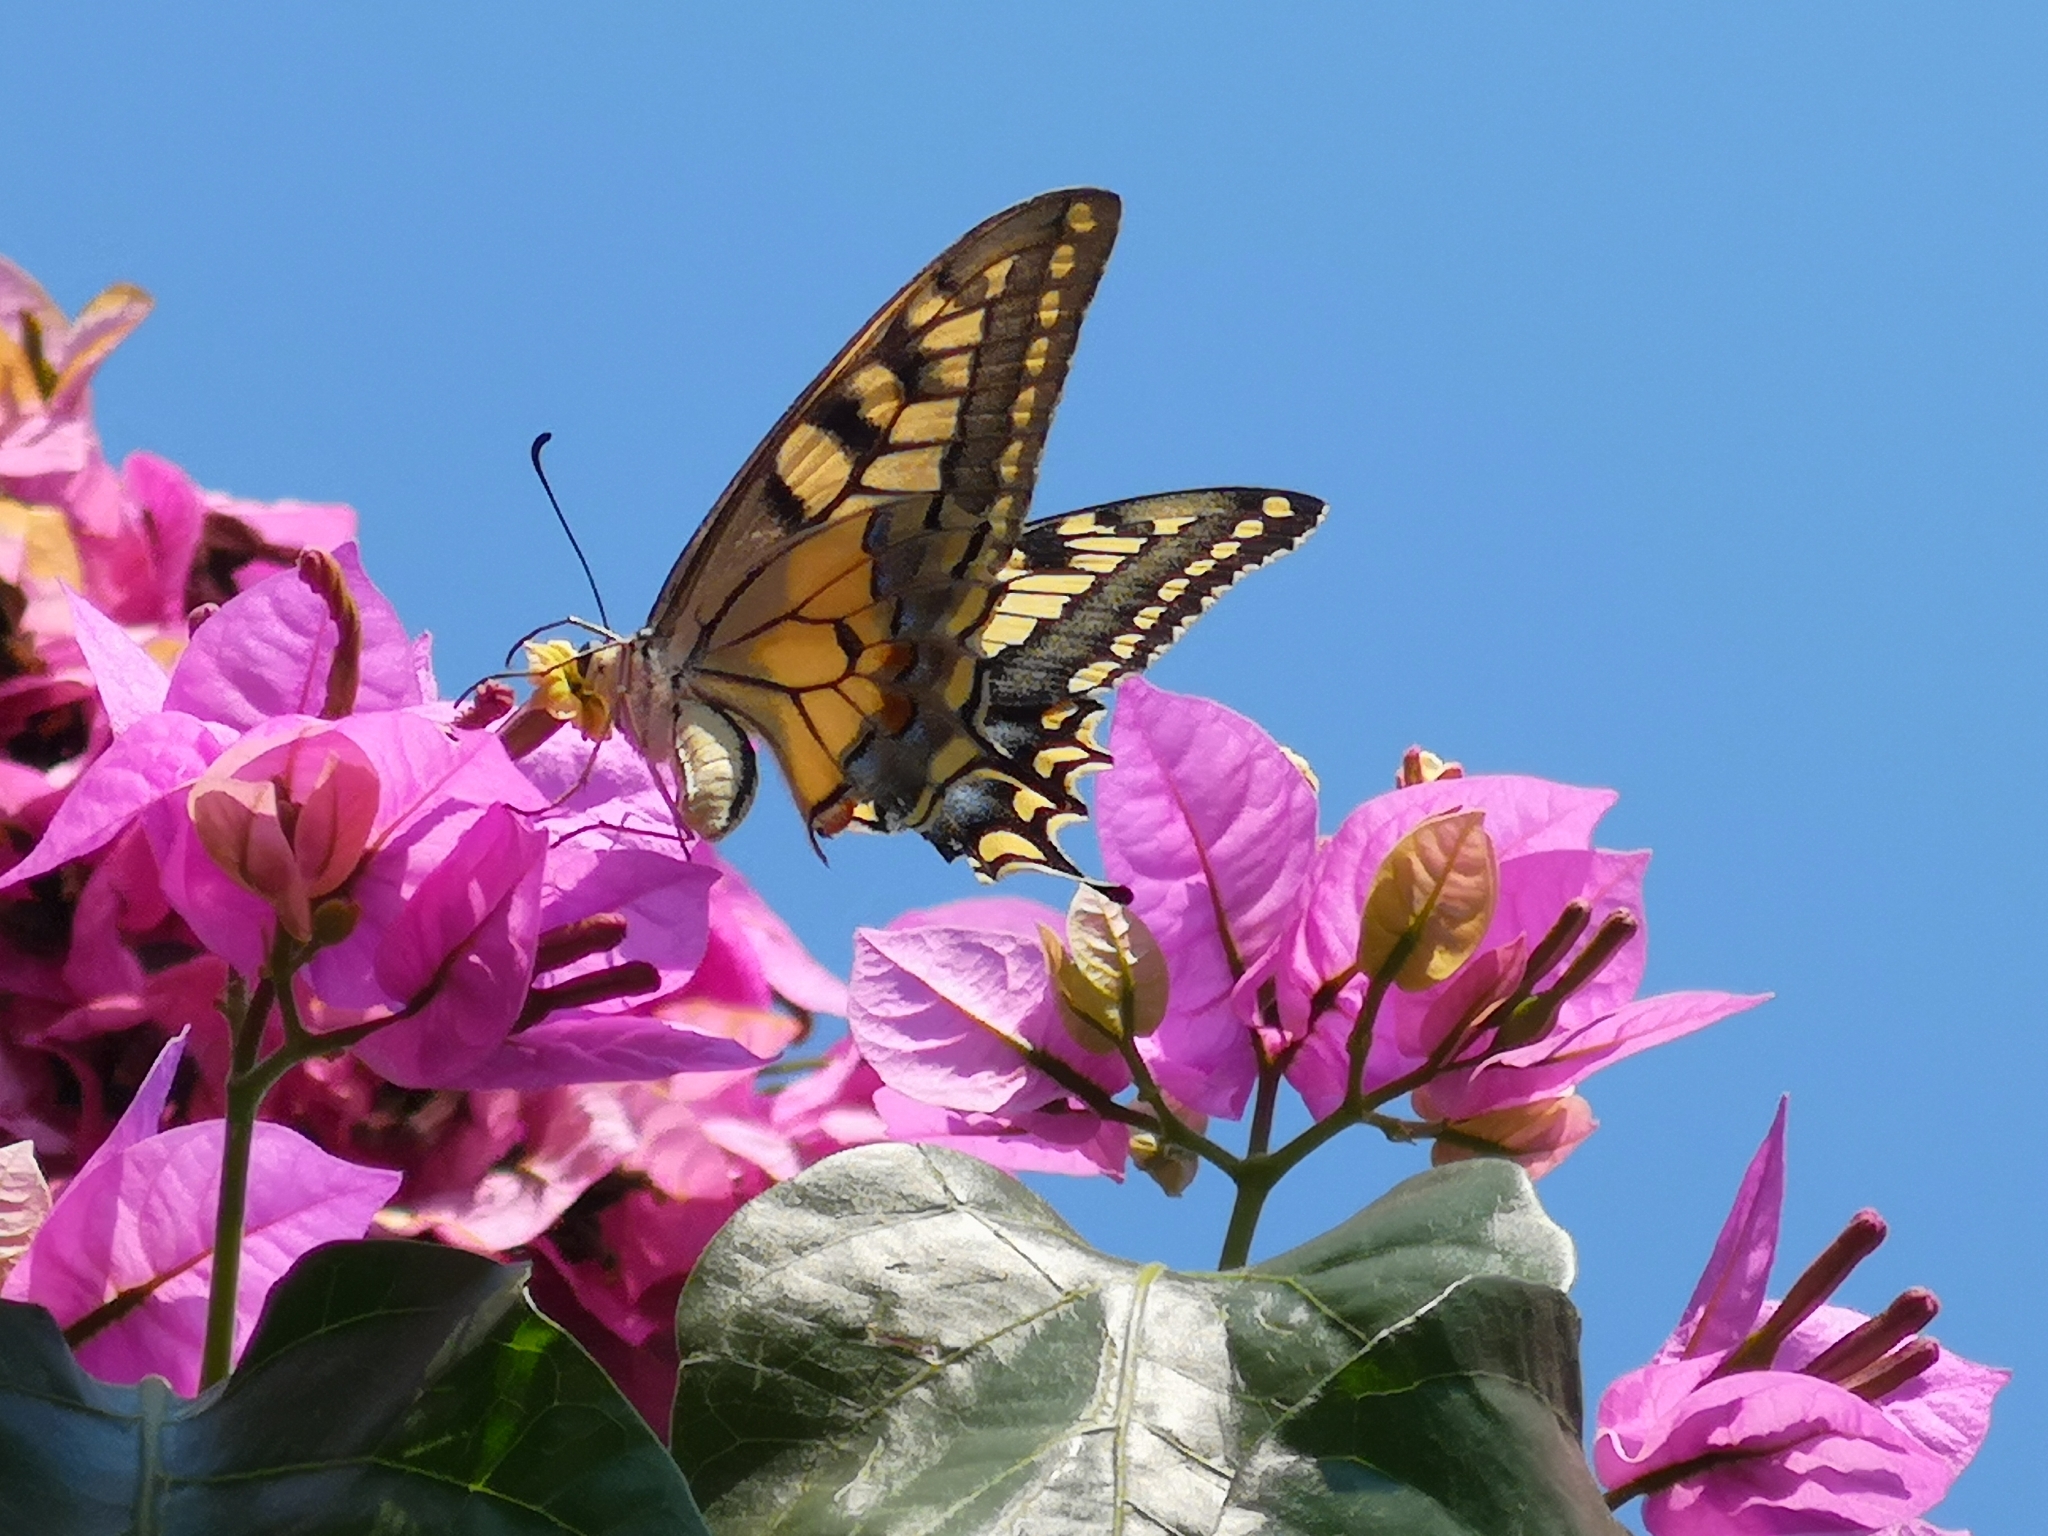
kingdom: Animalia
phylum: Arthropoda
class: Insecta
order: Lepidoptera
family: Papilionidae
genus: Papilio
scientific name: Papilio machaon
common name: Swallowtail
